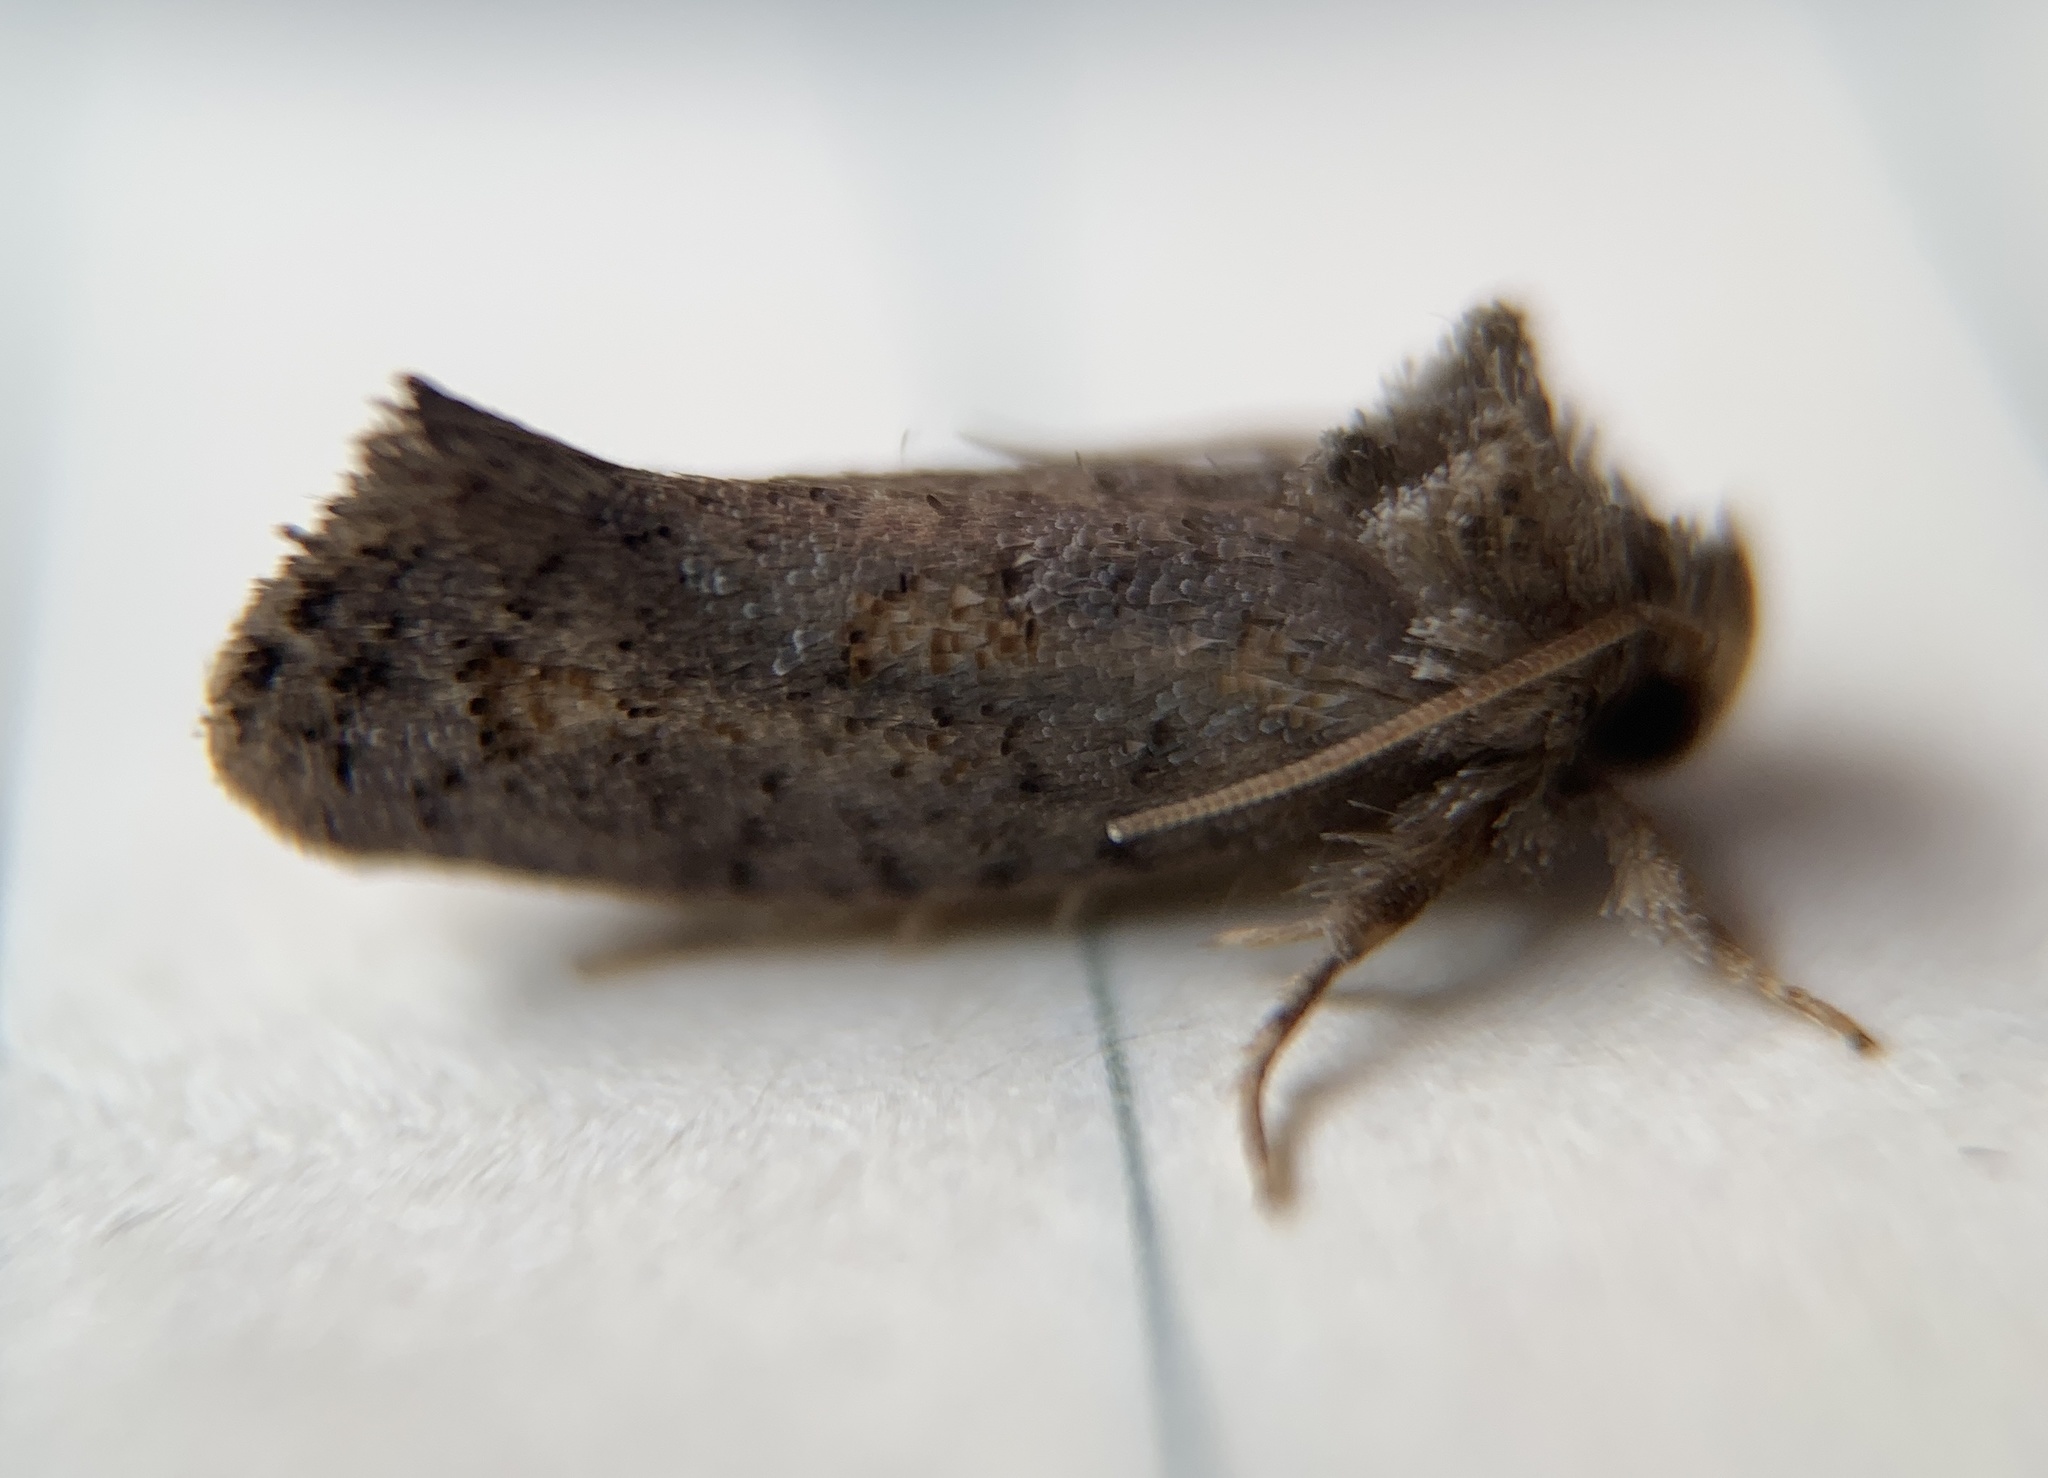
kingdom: Animalia
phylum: Arthropoda
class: Insecta
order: Lepidoptera
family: Tineidae
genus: Acrolophus
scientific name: Acrolophus piger
